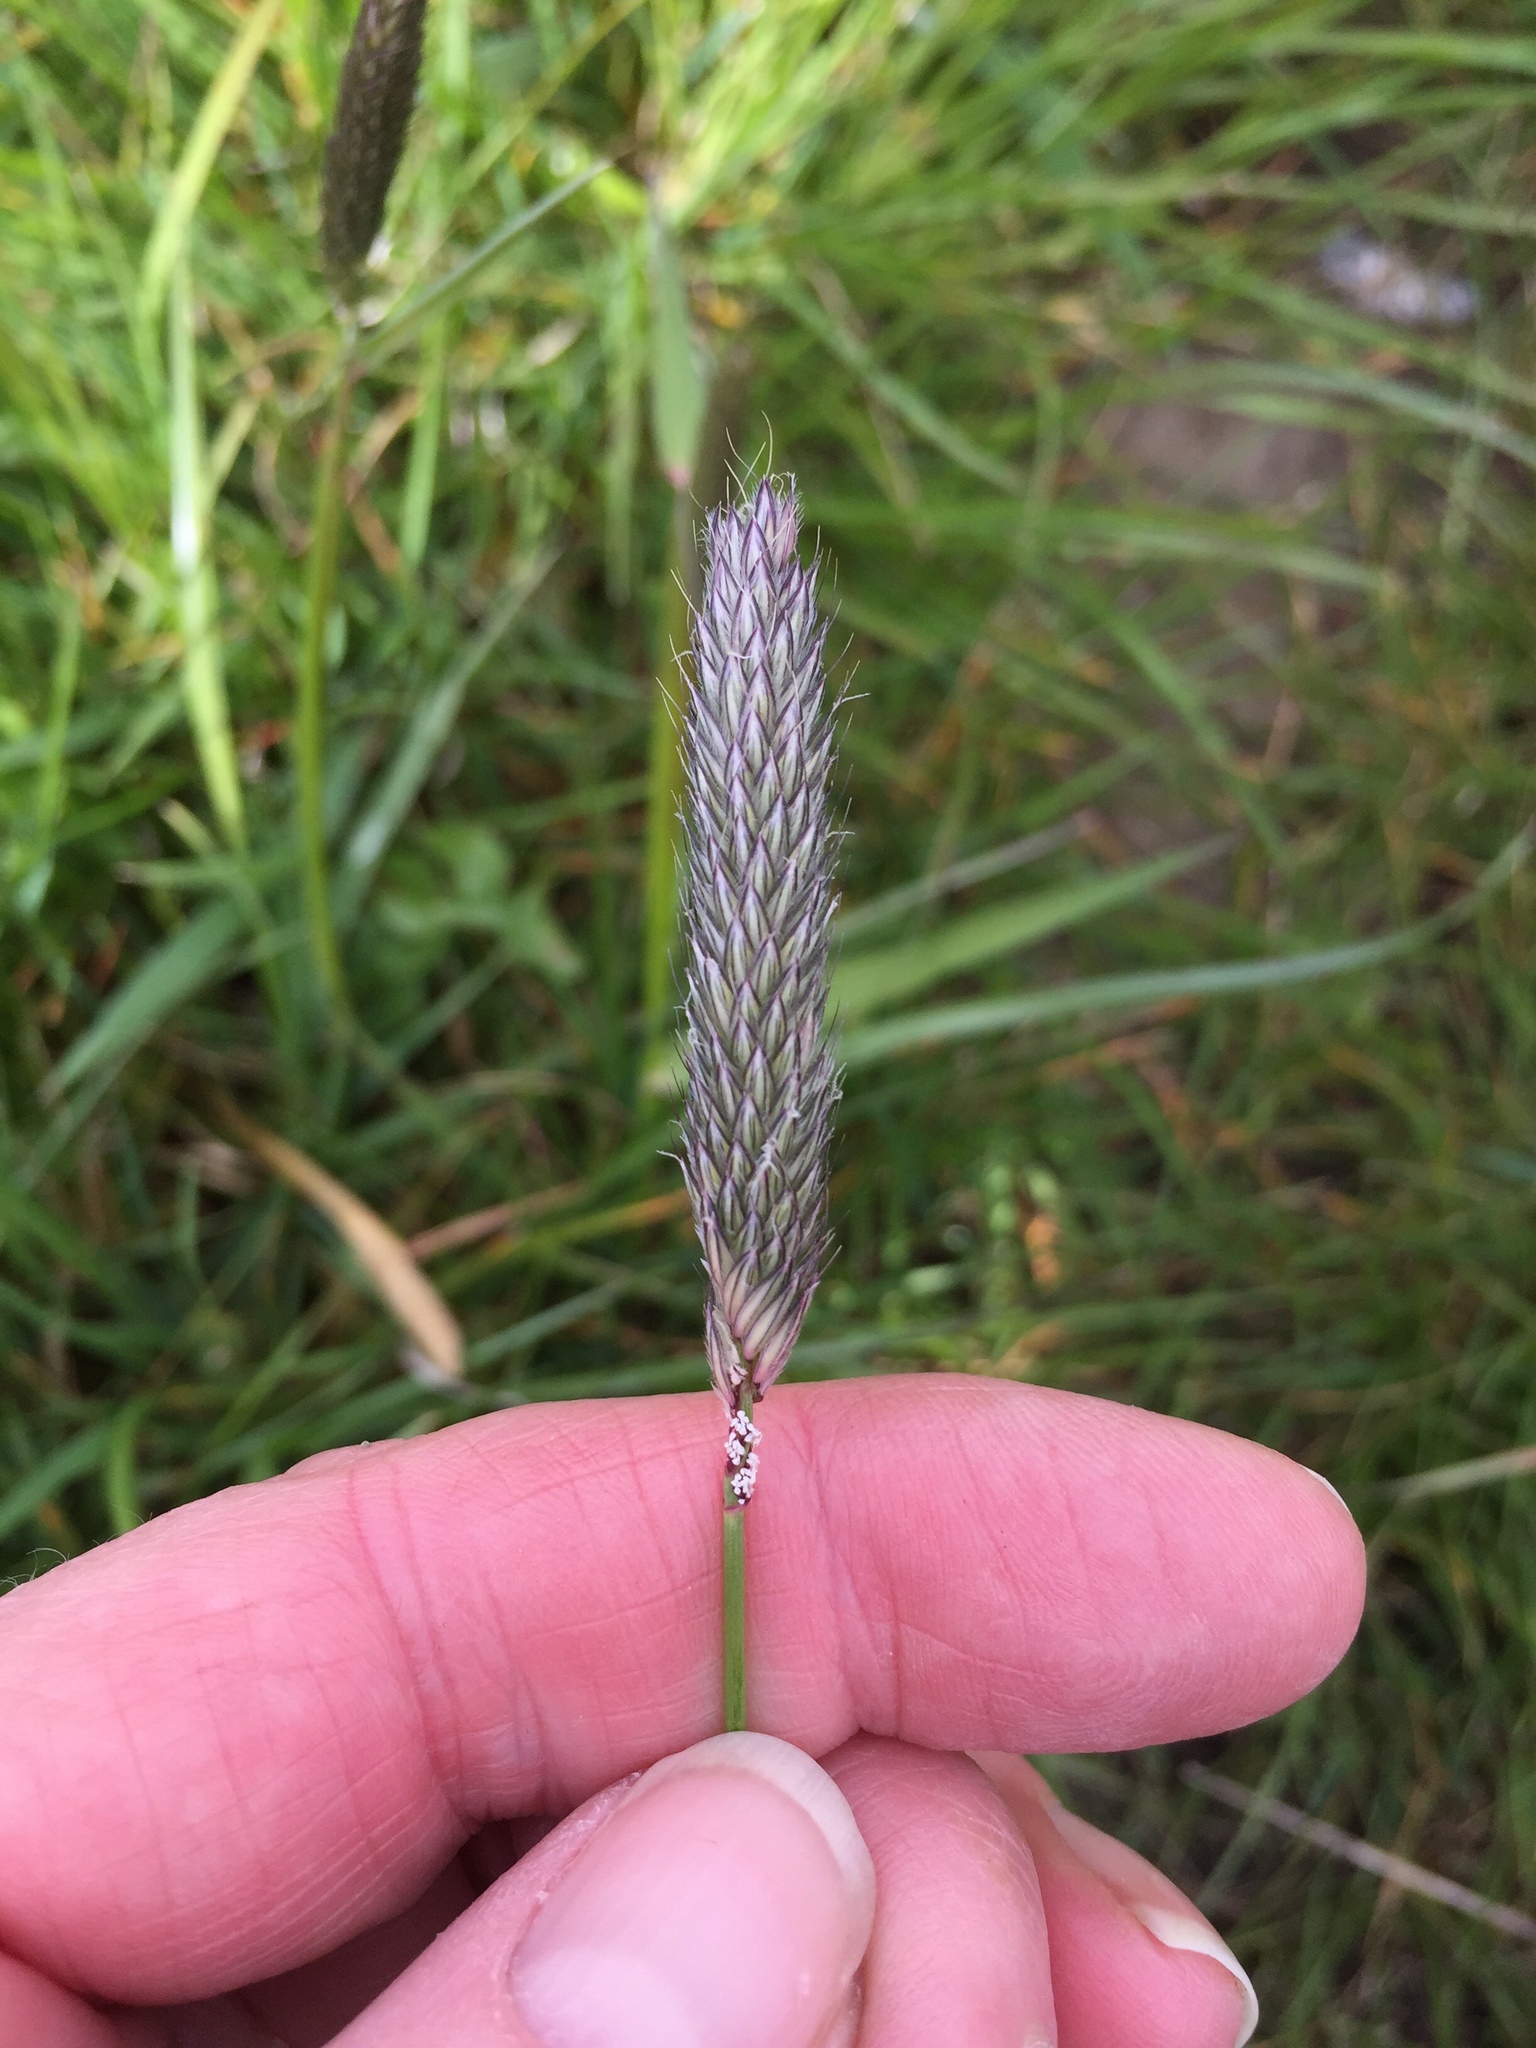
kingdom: Plantae
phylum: Tracheophyta
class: Liliopsida
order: Poales
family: Poaceae
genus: Alopecurus
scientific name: Alopecurus pratensis
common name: Meadow foxtail
